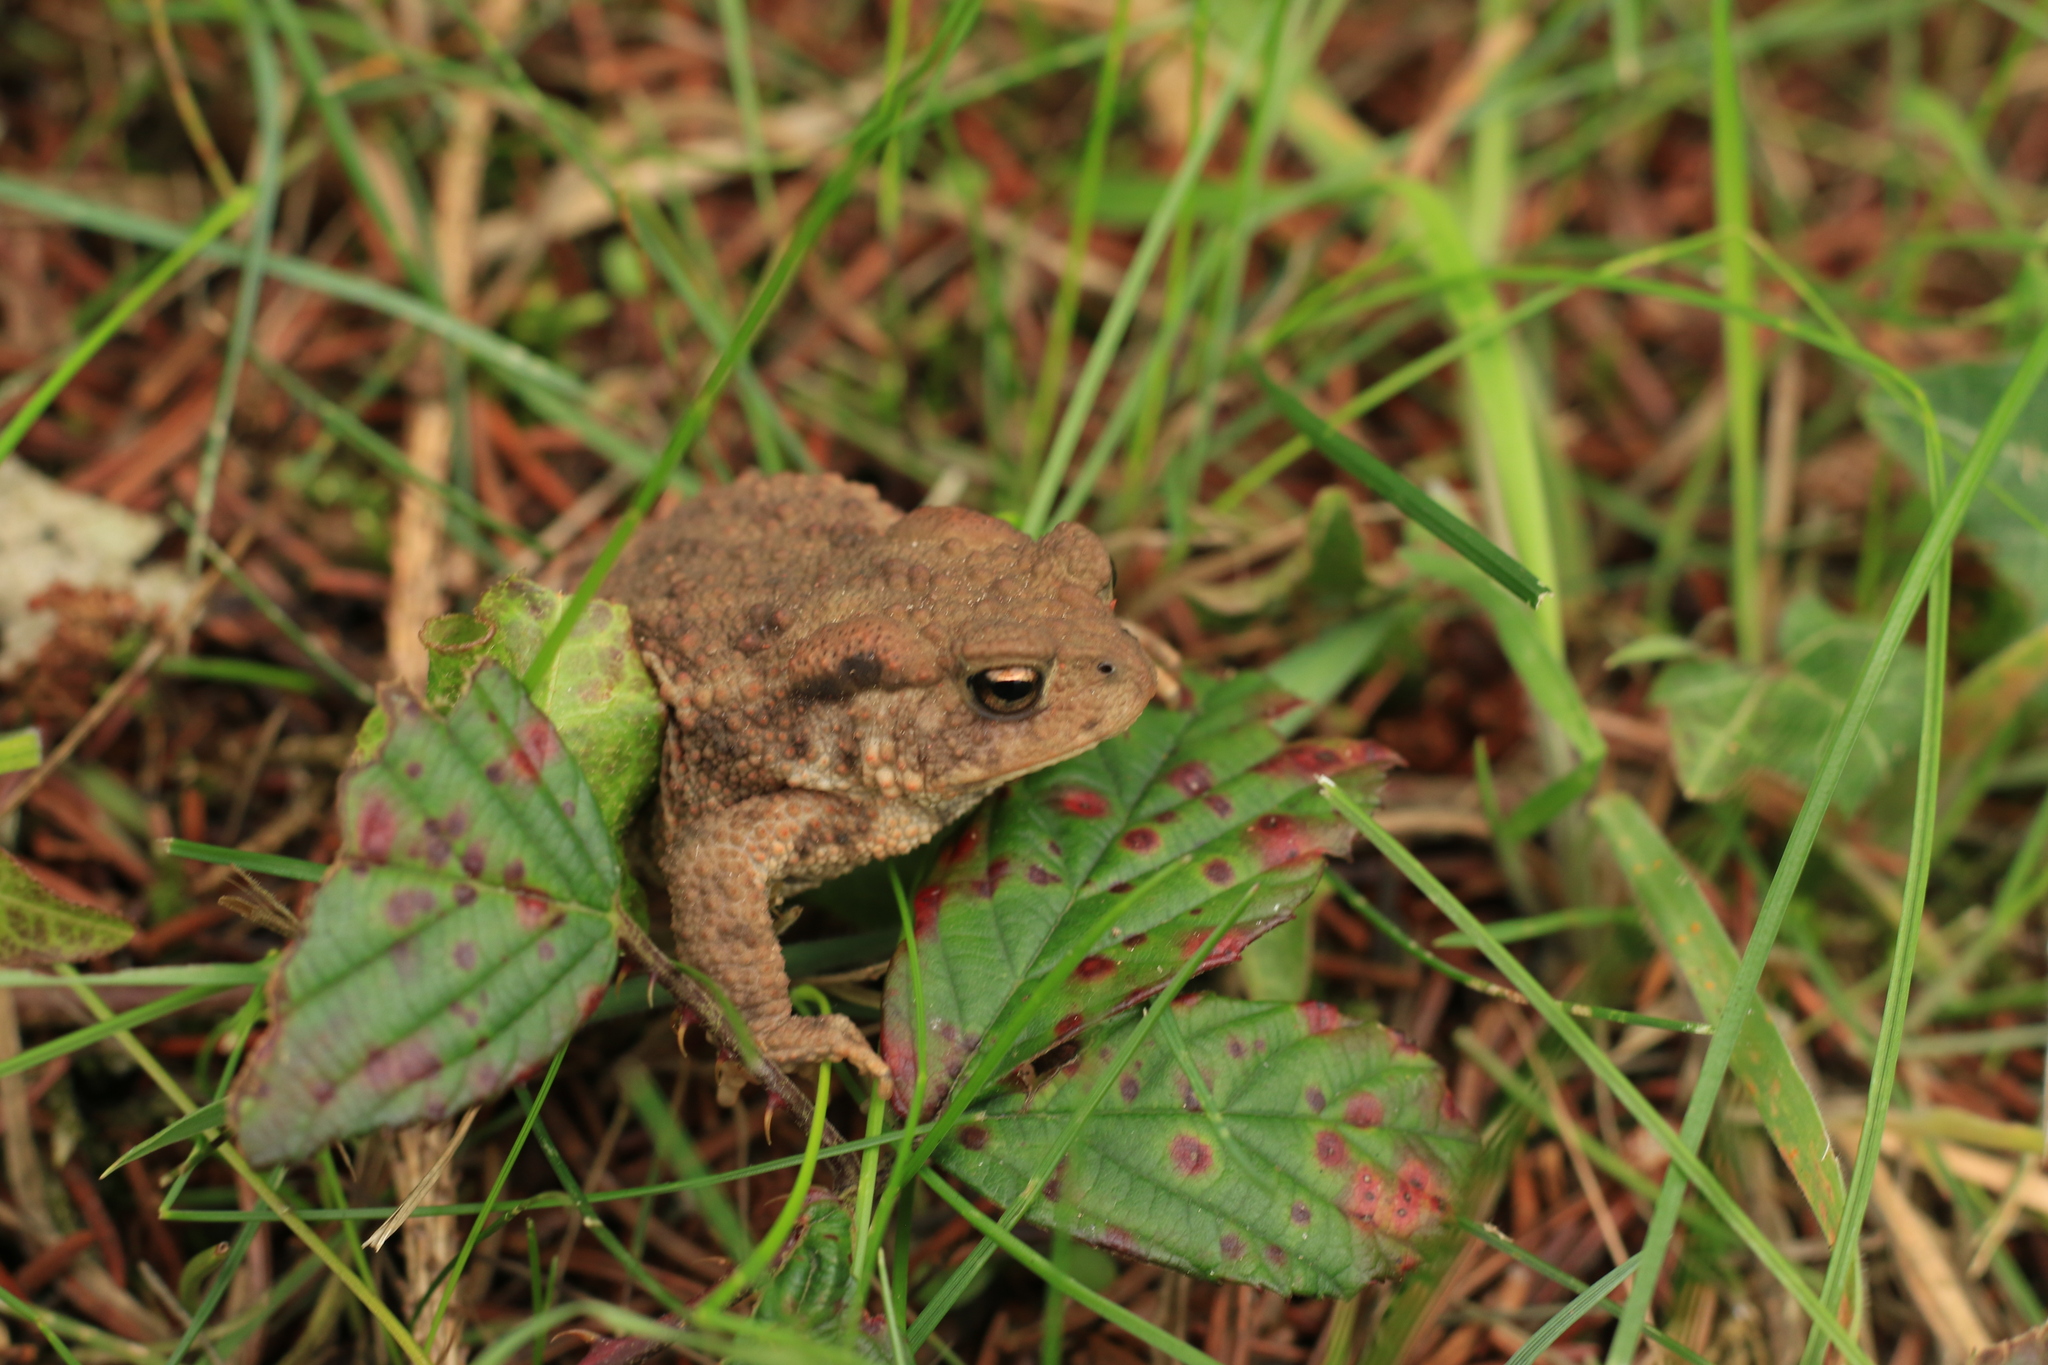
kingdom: Animalia
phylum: Chordata
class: Amphibia
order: Anura
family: Bufonidae
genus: Bufo
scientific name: Bufo bufo
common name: Common toad
